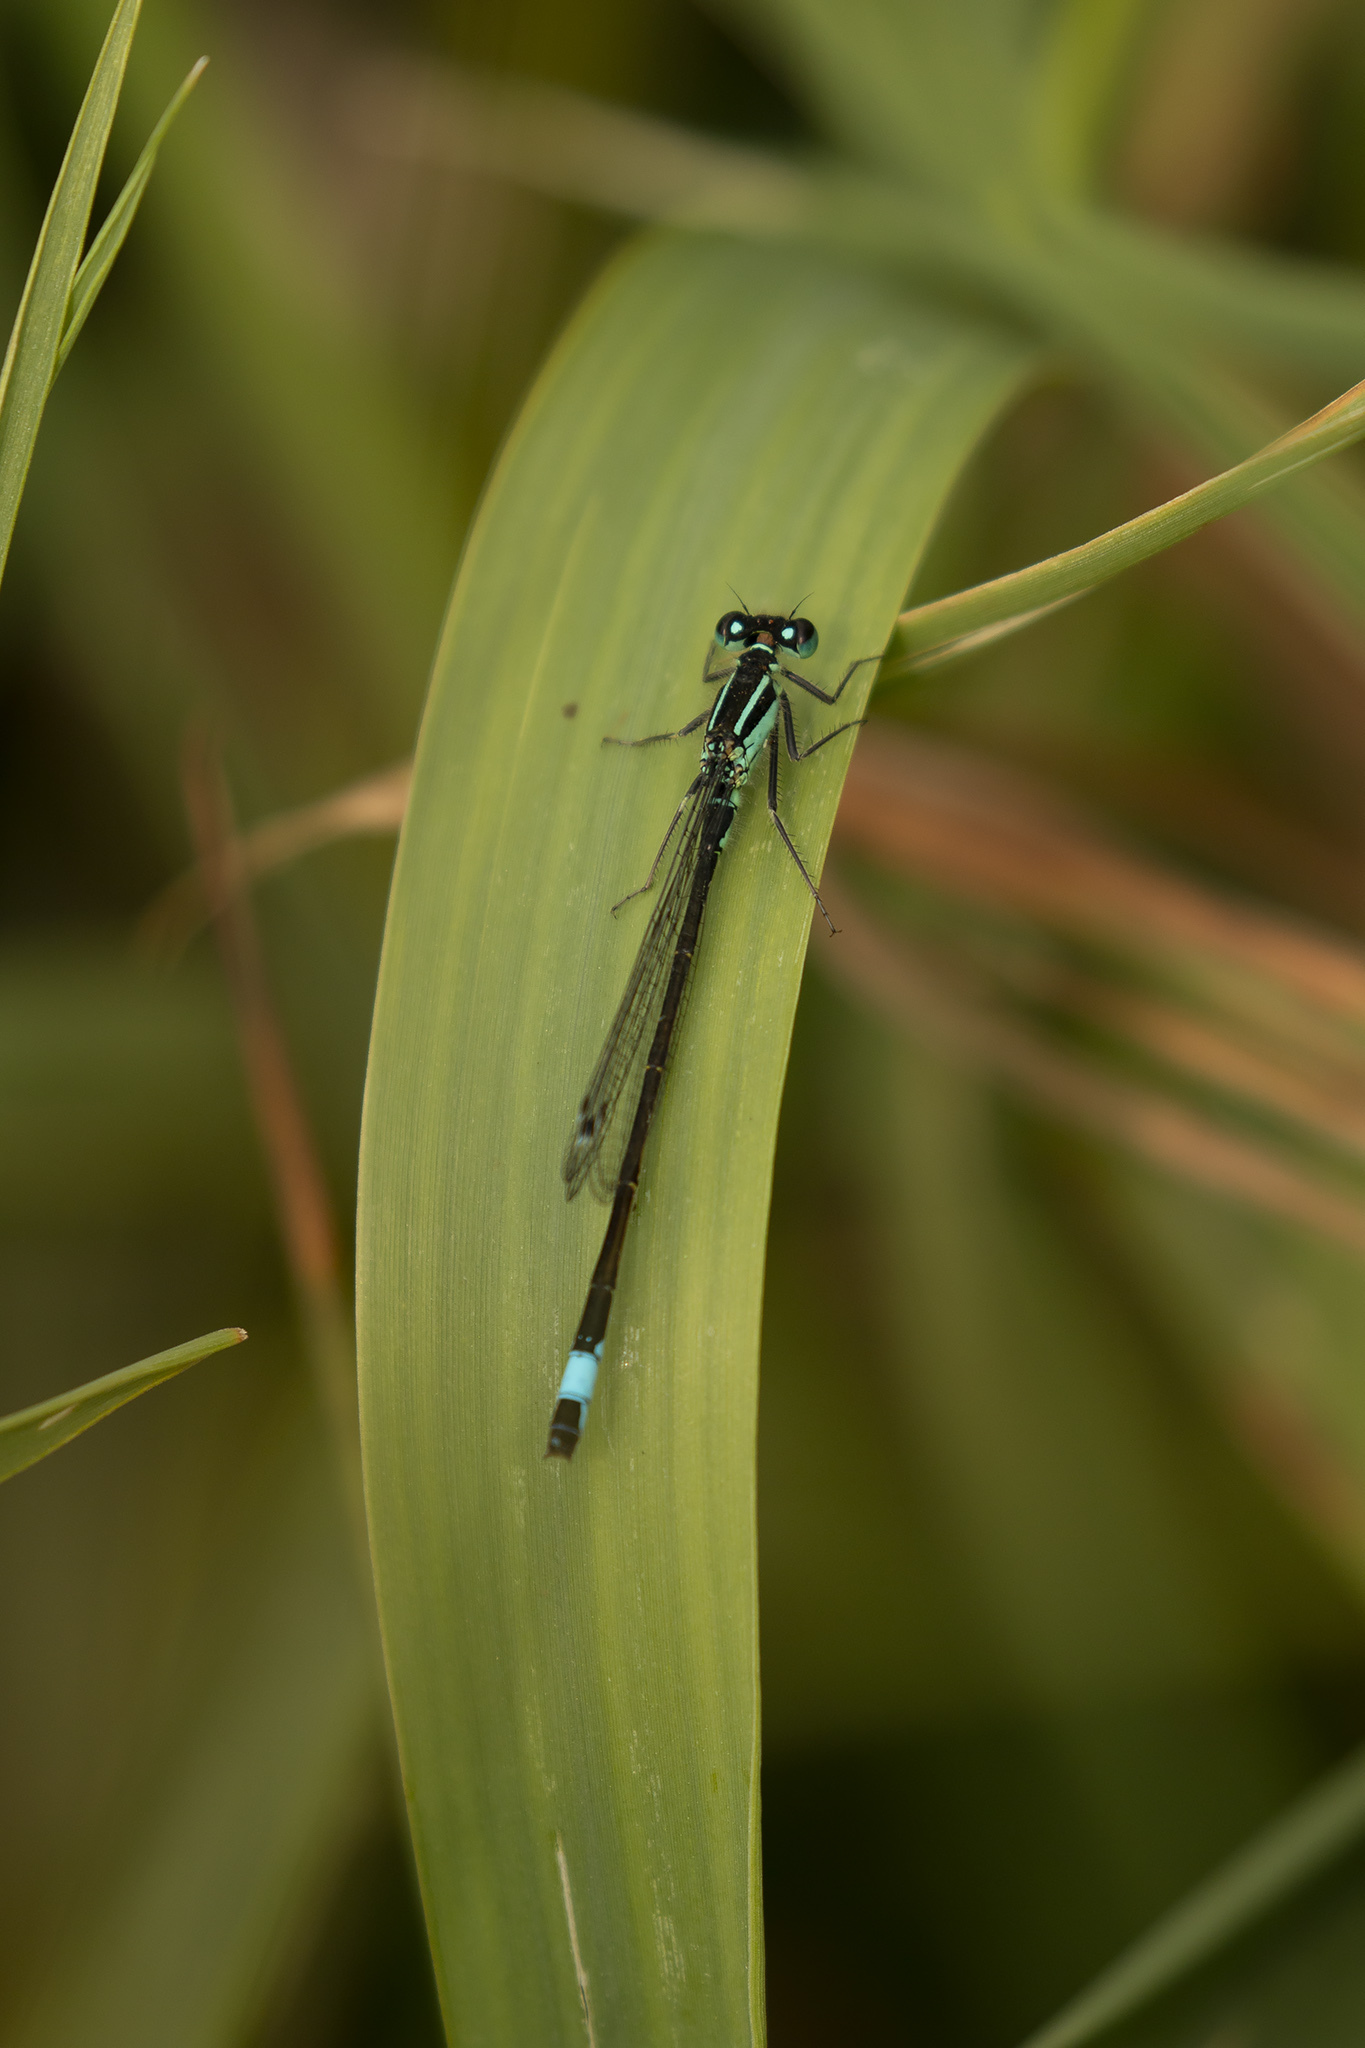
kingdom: Animalia
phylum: Arthropoda
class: Insecta
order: Odonata
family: Coenagrionidae
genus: Ischnura
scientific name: Ischnura elegans
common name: Blue-tailed damselfly
